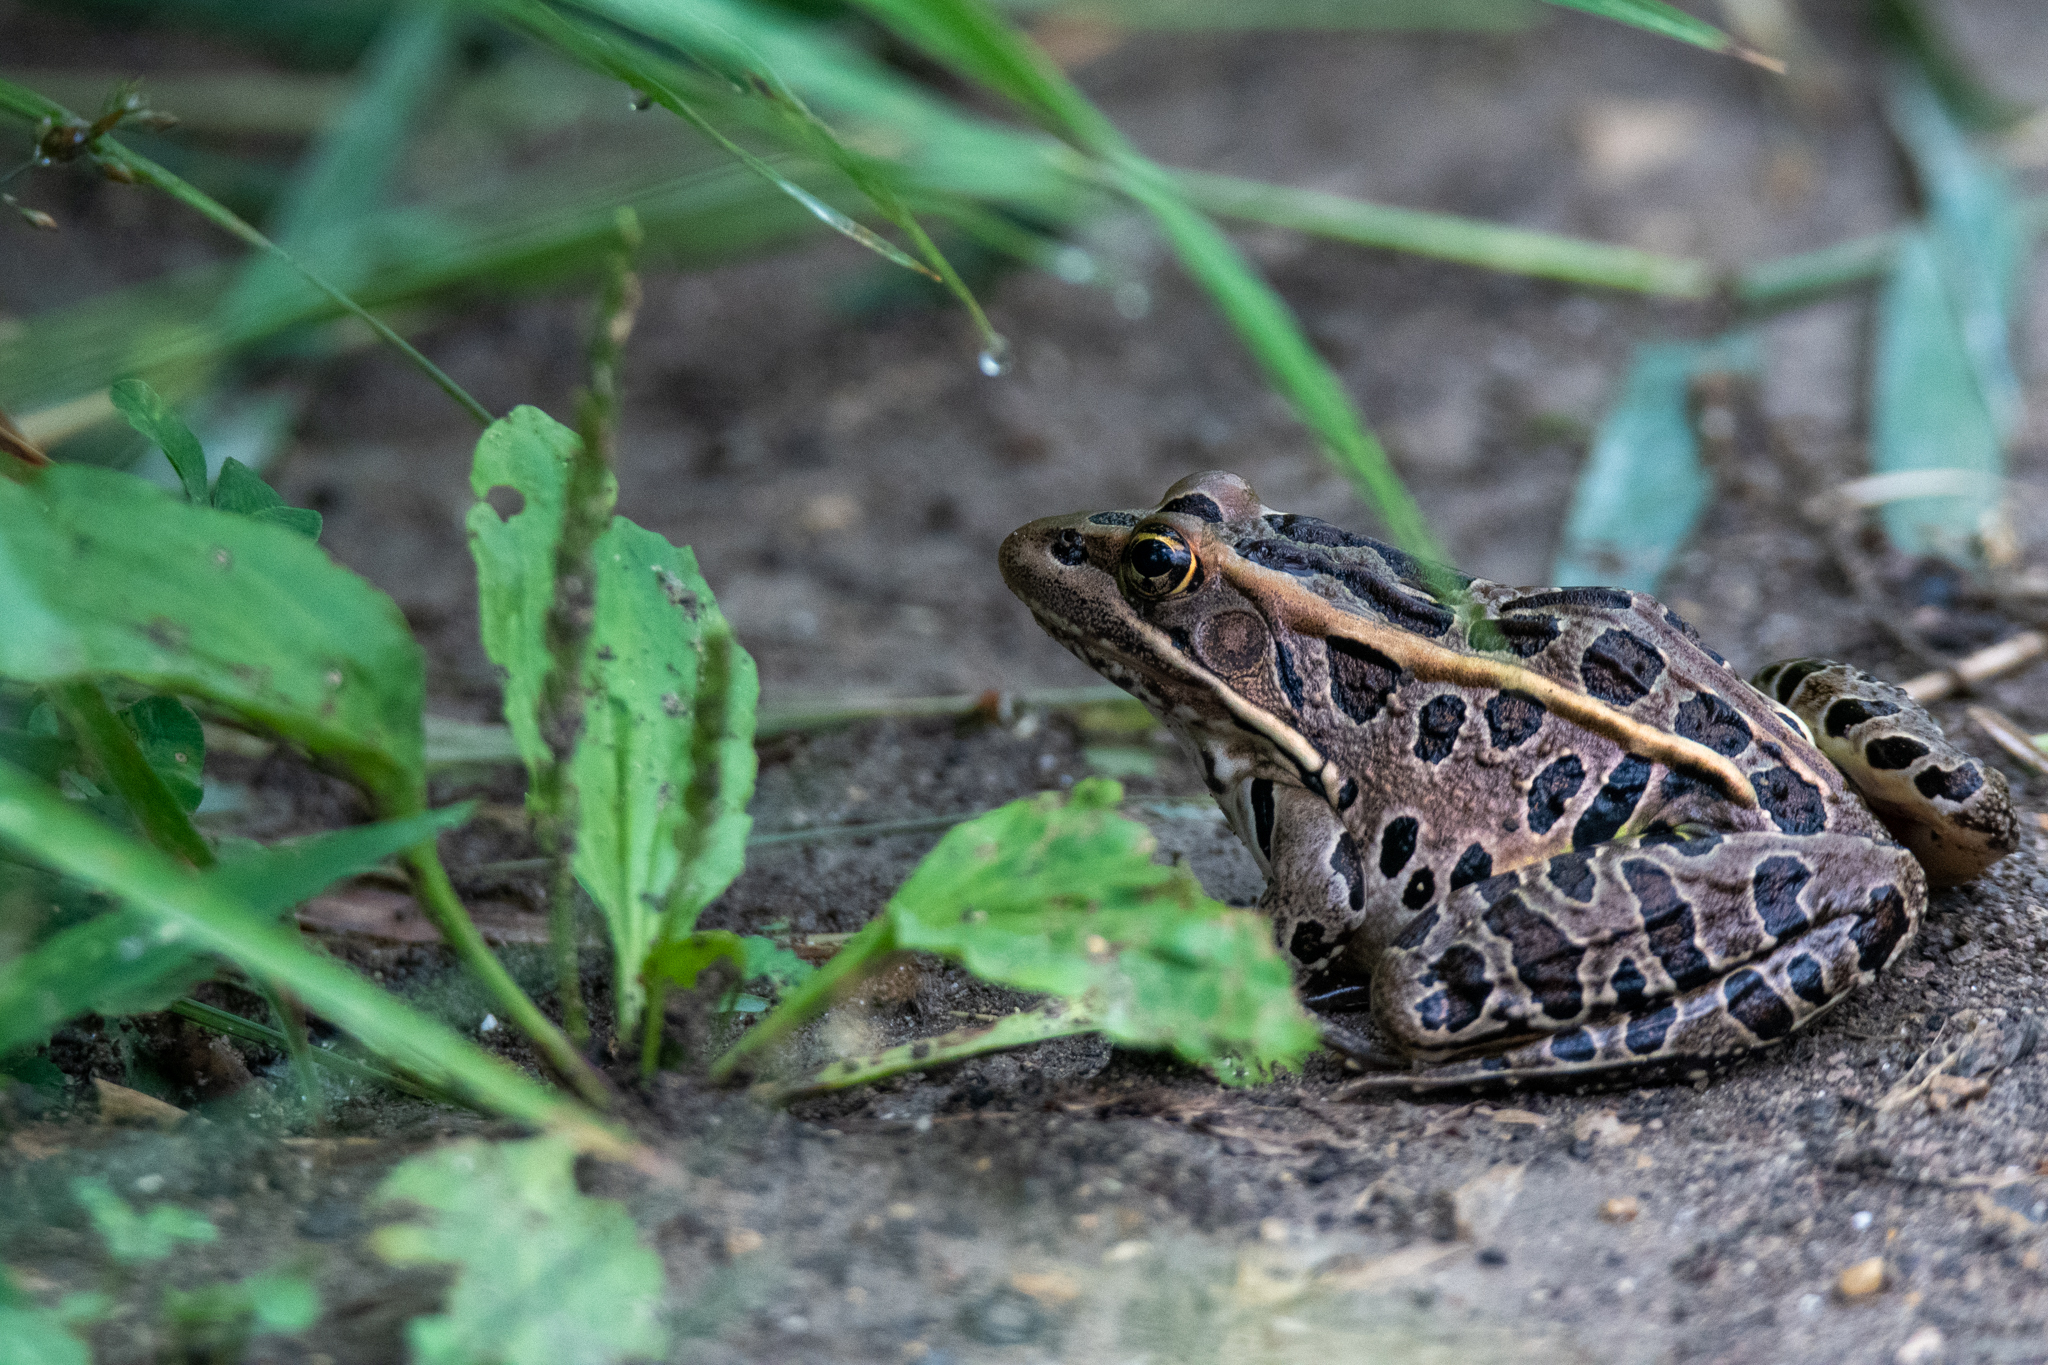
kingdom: Animalia
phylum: Chordata
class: Amphibia
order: Anura
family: Ranidae
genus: Lithobates
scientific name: Lithobates pipiens
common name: Northern leopard frog
